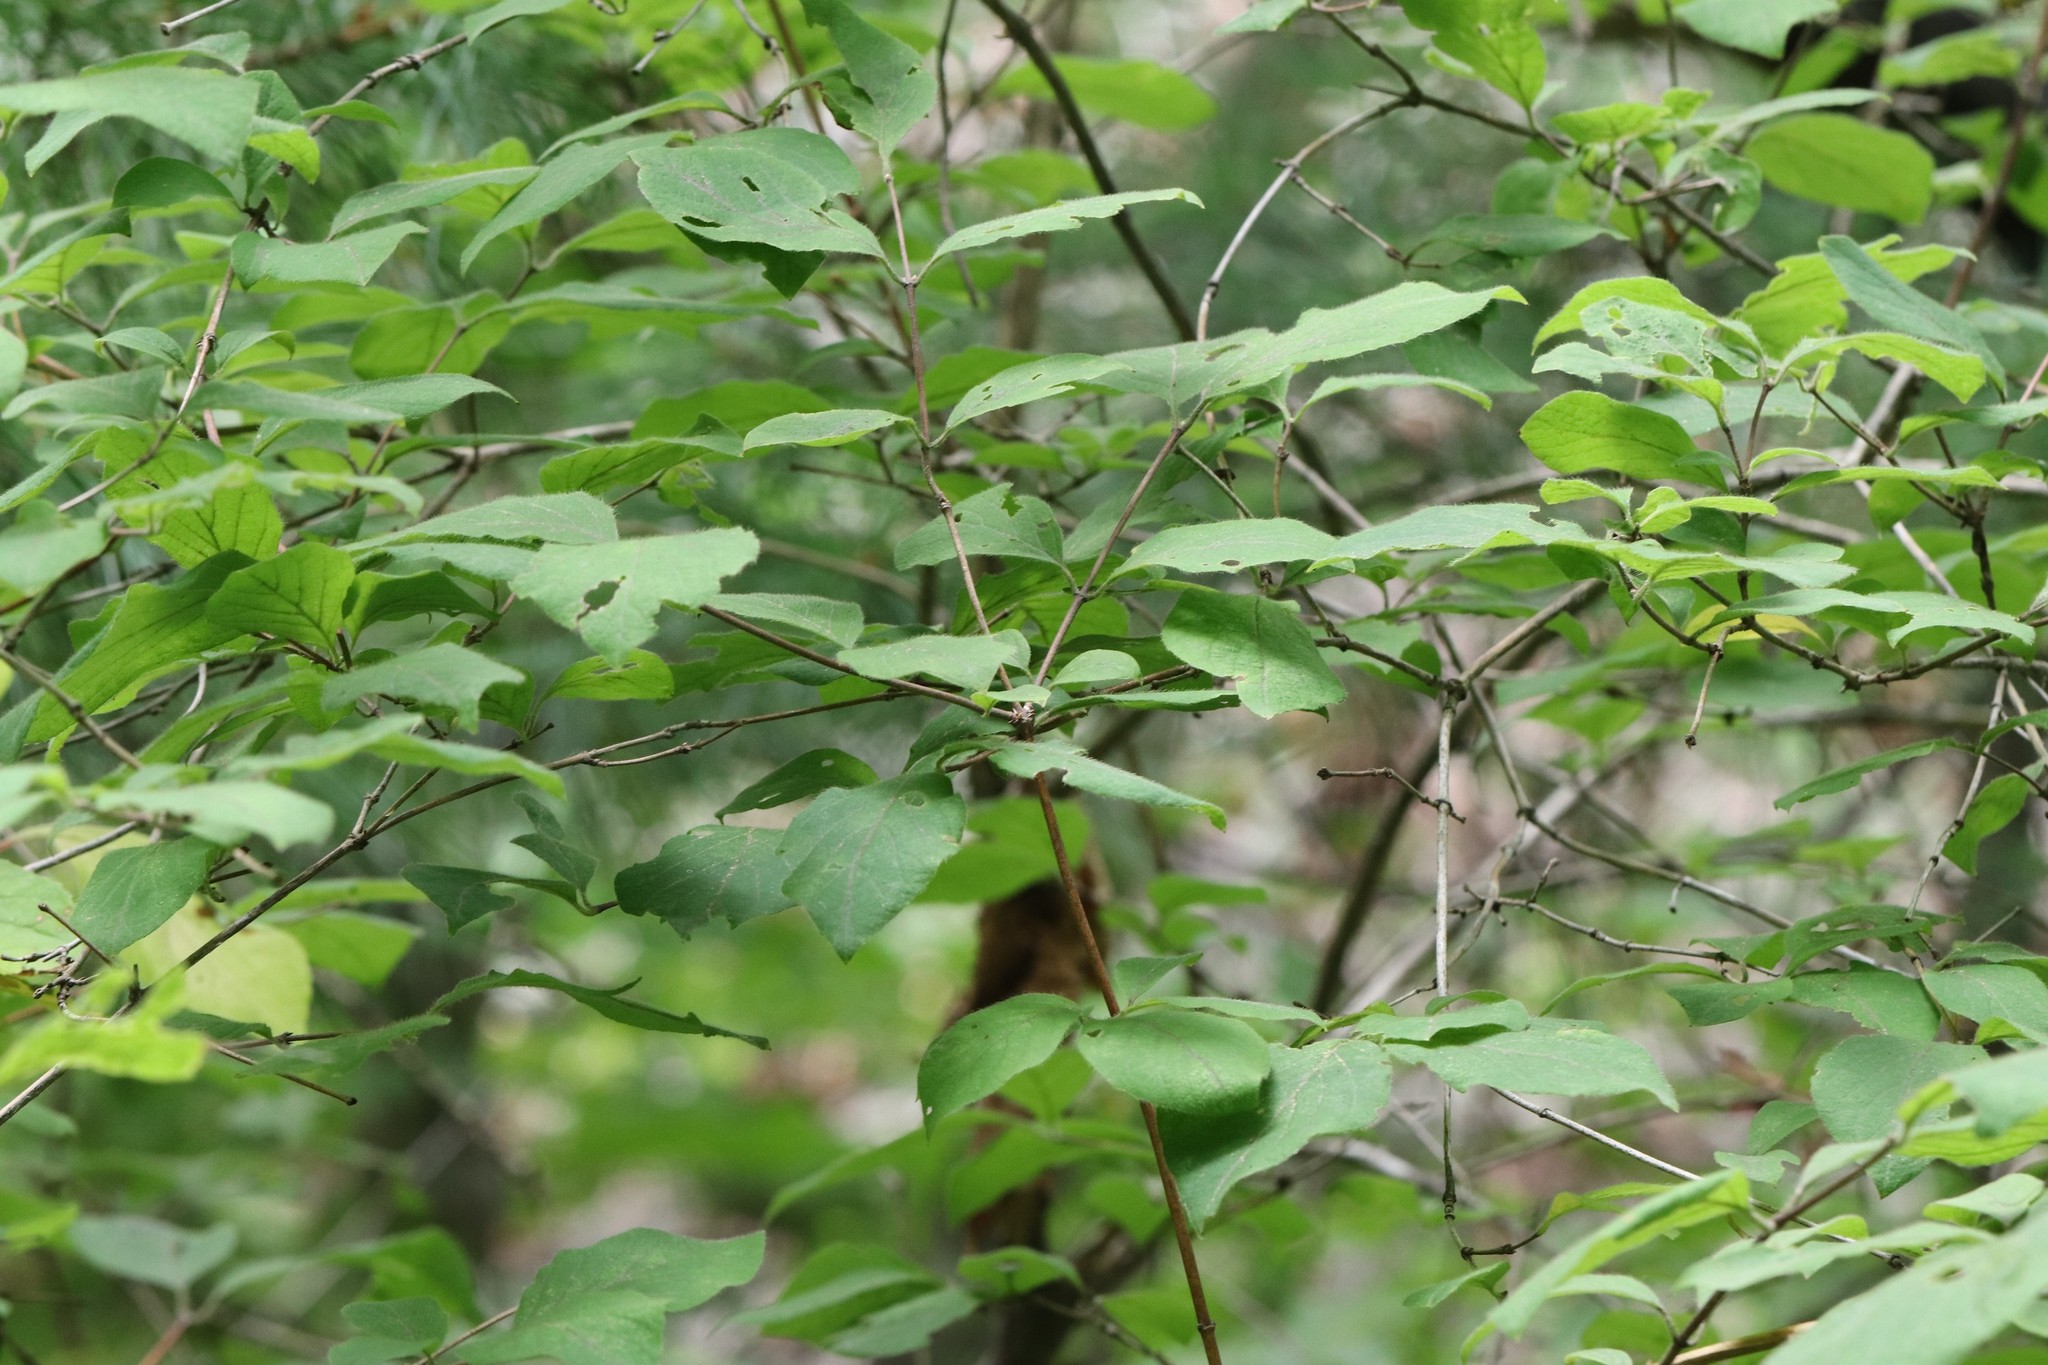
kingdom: Plantae
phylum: Tracheophyta
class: Magnoliopsida
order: Dipsacales
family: Caprifoliaceae
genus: Lonicera
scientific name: Lonicera praeflorens
